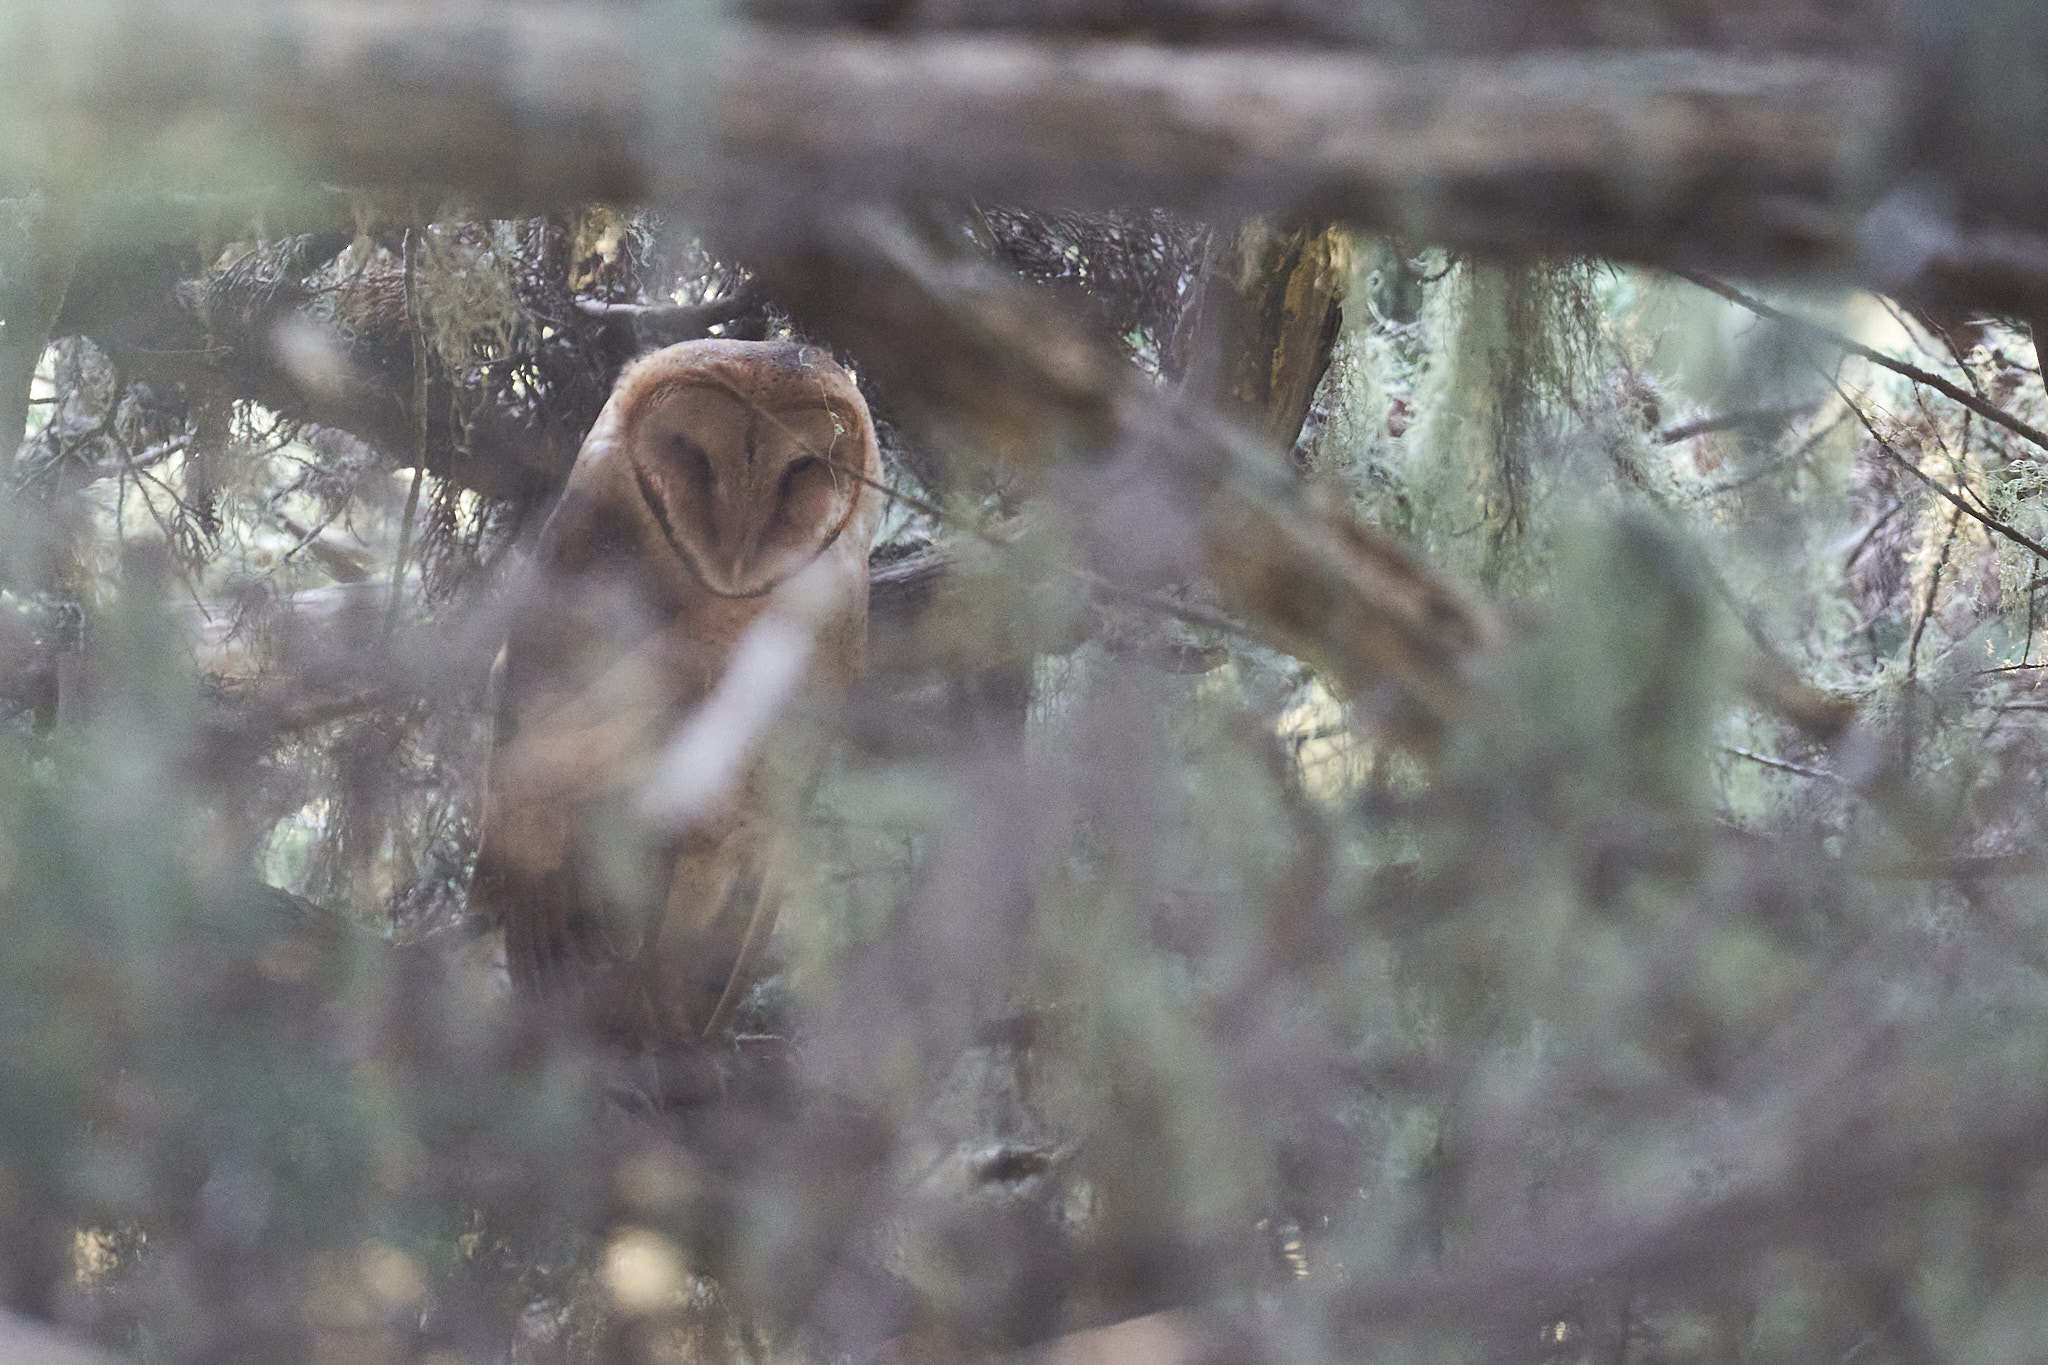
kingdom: Animalia
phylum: Chordata
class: Aves
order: Strigiformes
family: Tytonidae
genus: Tyto
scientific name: Tyto alba
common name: Barn owl
